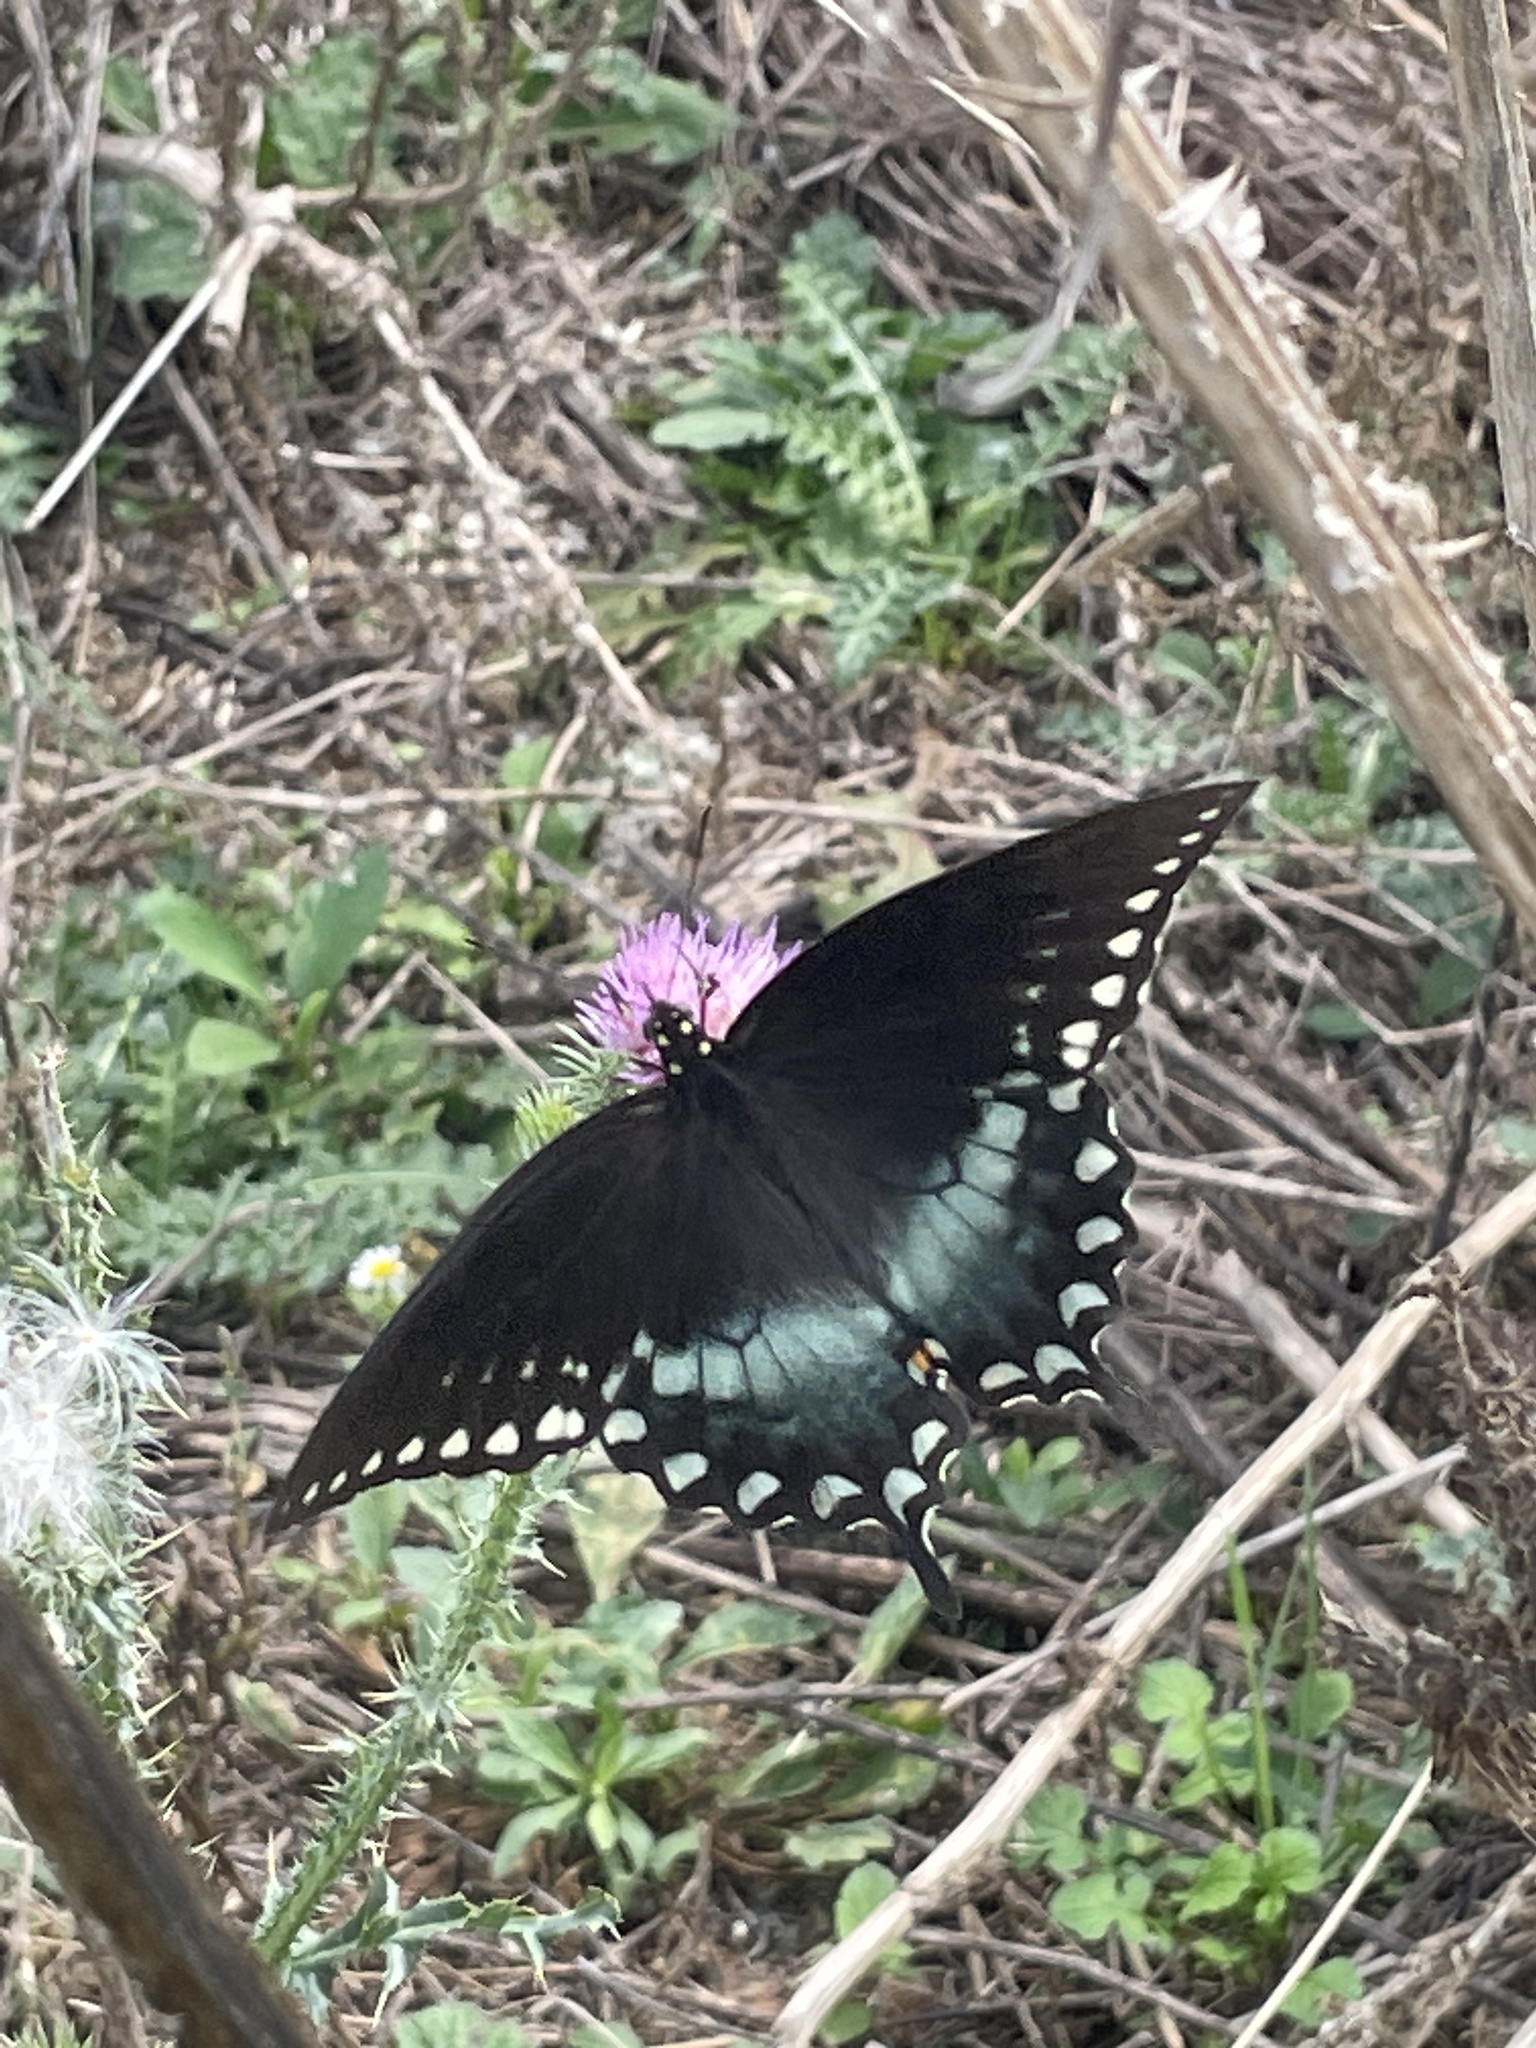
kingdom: Animalia
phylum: Arthropoda
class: Insecta
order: Lepidoptera
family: Papilionidae
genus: Papilio
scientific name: Papilio troilus
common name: Spicebush swallowtail
